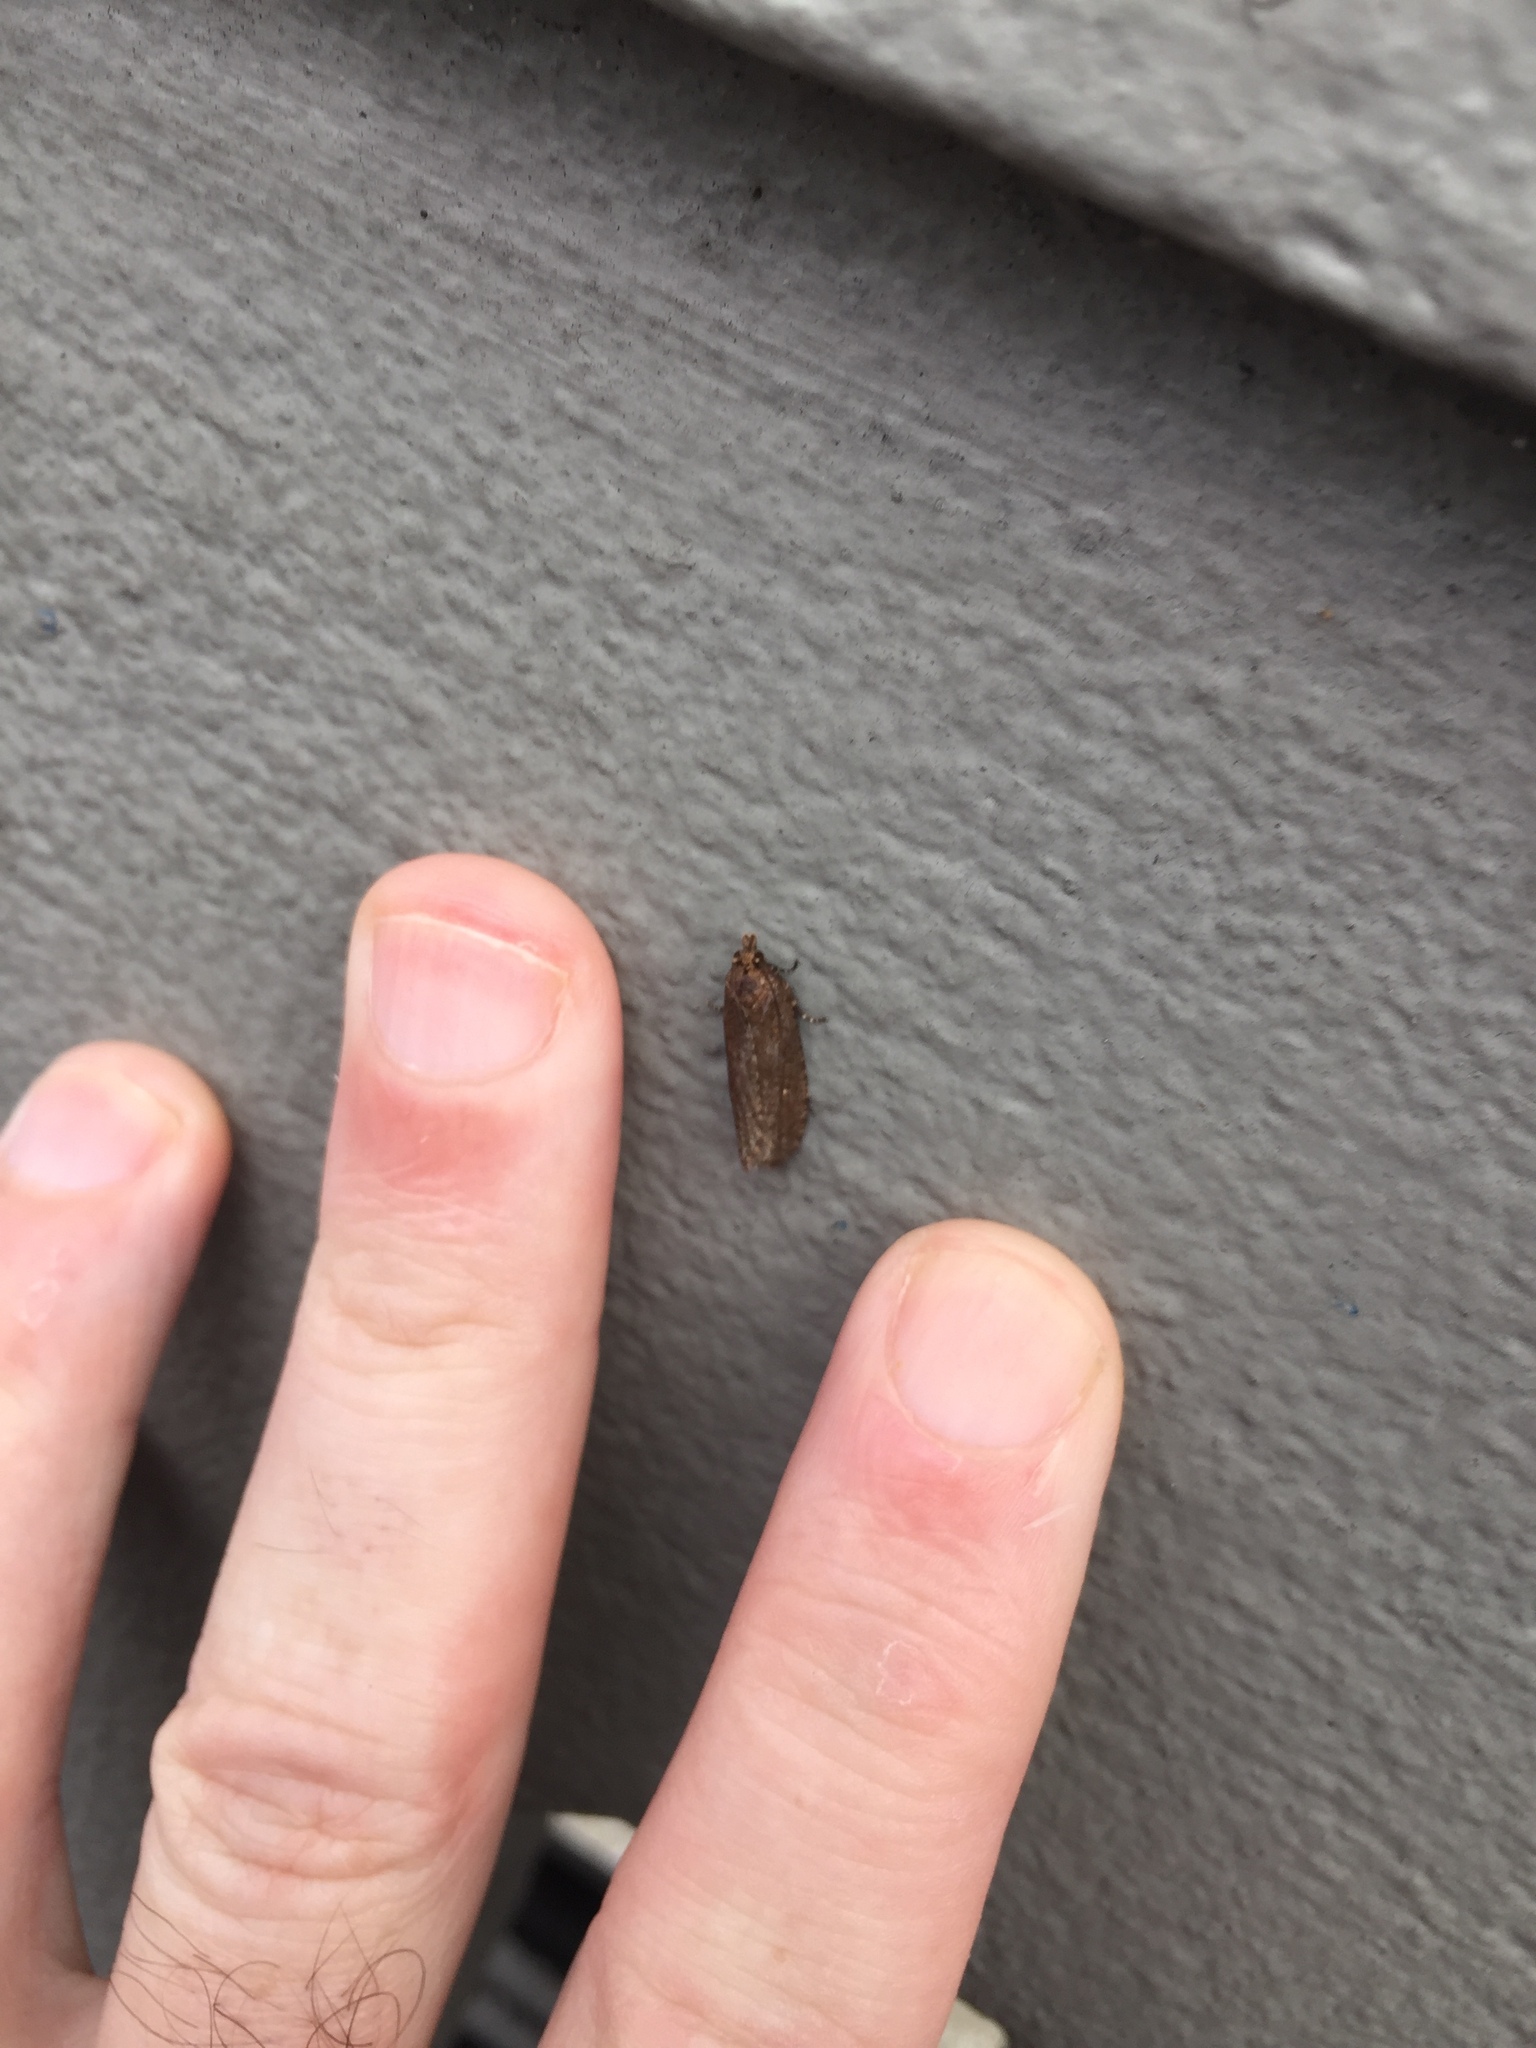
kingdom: Animalia
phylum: Arthropoda
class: Insecta
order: Lepidoptera
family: Tortricidae
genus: Cryptaspasma
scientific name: Cryptaspasma querula
